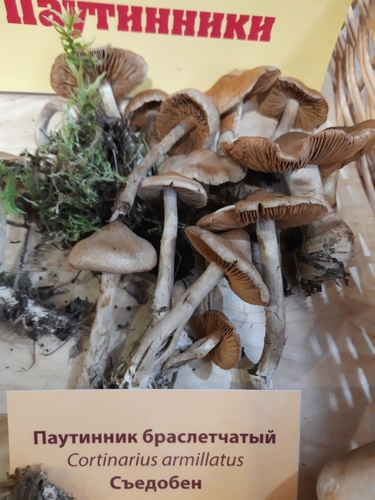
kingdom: Fungi
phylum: Basidiomycota
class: Agaricomycetes
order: Agaricales
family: Cortinariaceae
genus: Cortinarius
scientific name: Cortinarius
